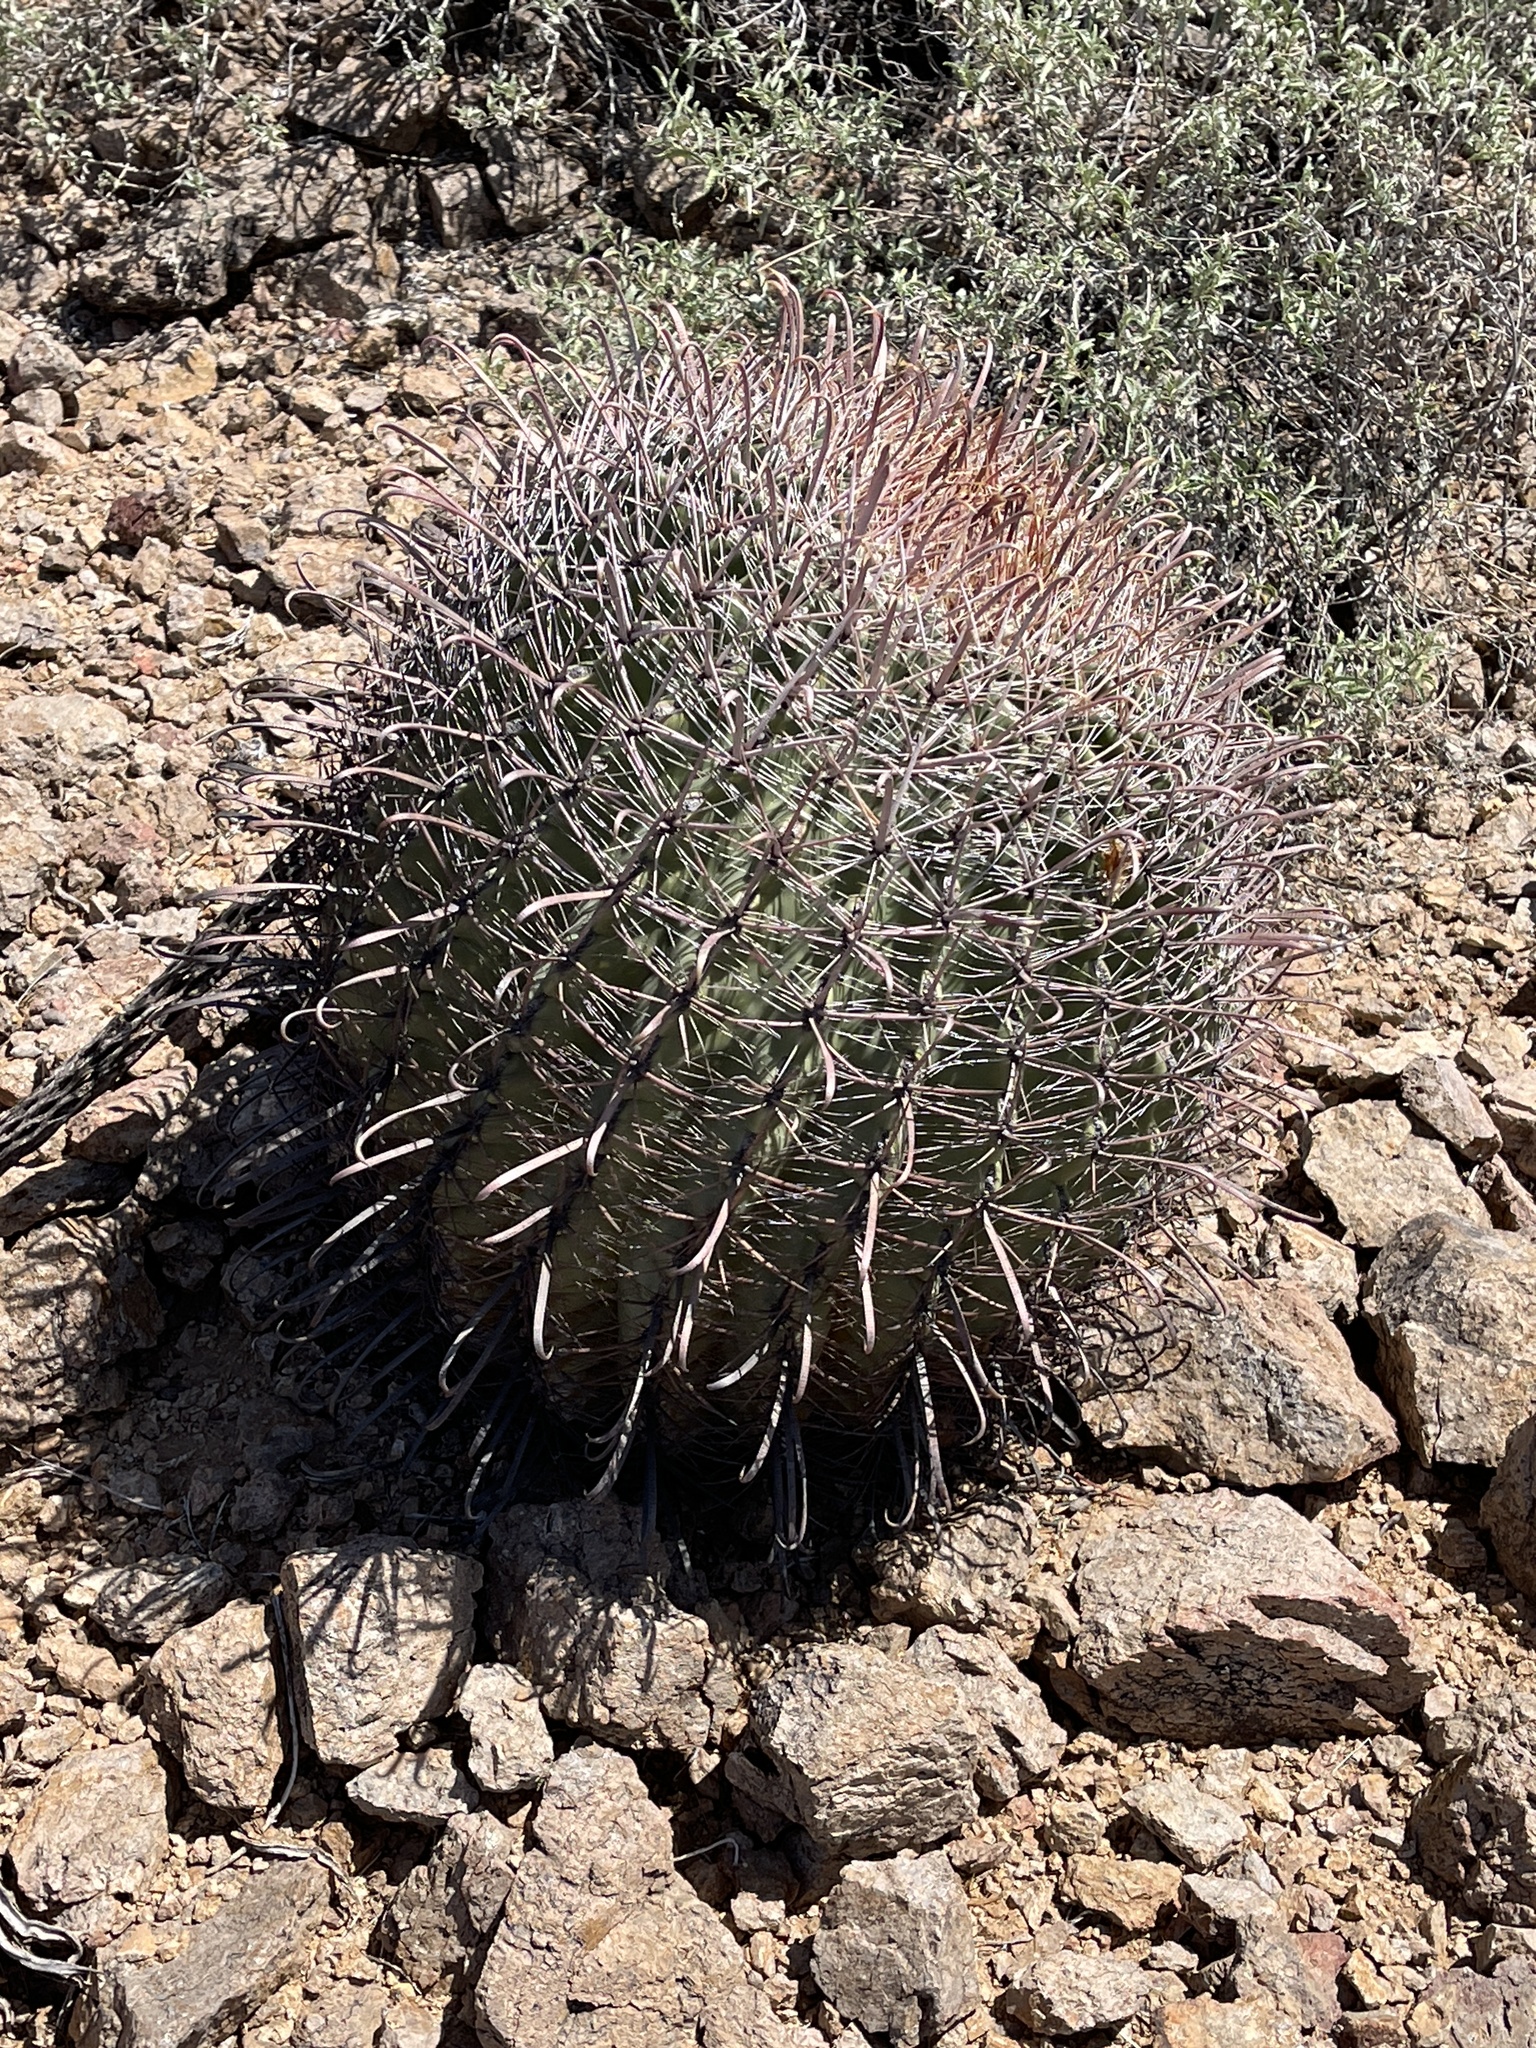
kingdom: Plantae
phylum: Tracheophyta
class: Magnoliopsida
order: Caryophyllales
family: Cactaceae
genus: Ferocactus
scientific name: Ferocactus wislizeni
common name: Candy barrel cactus
